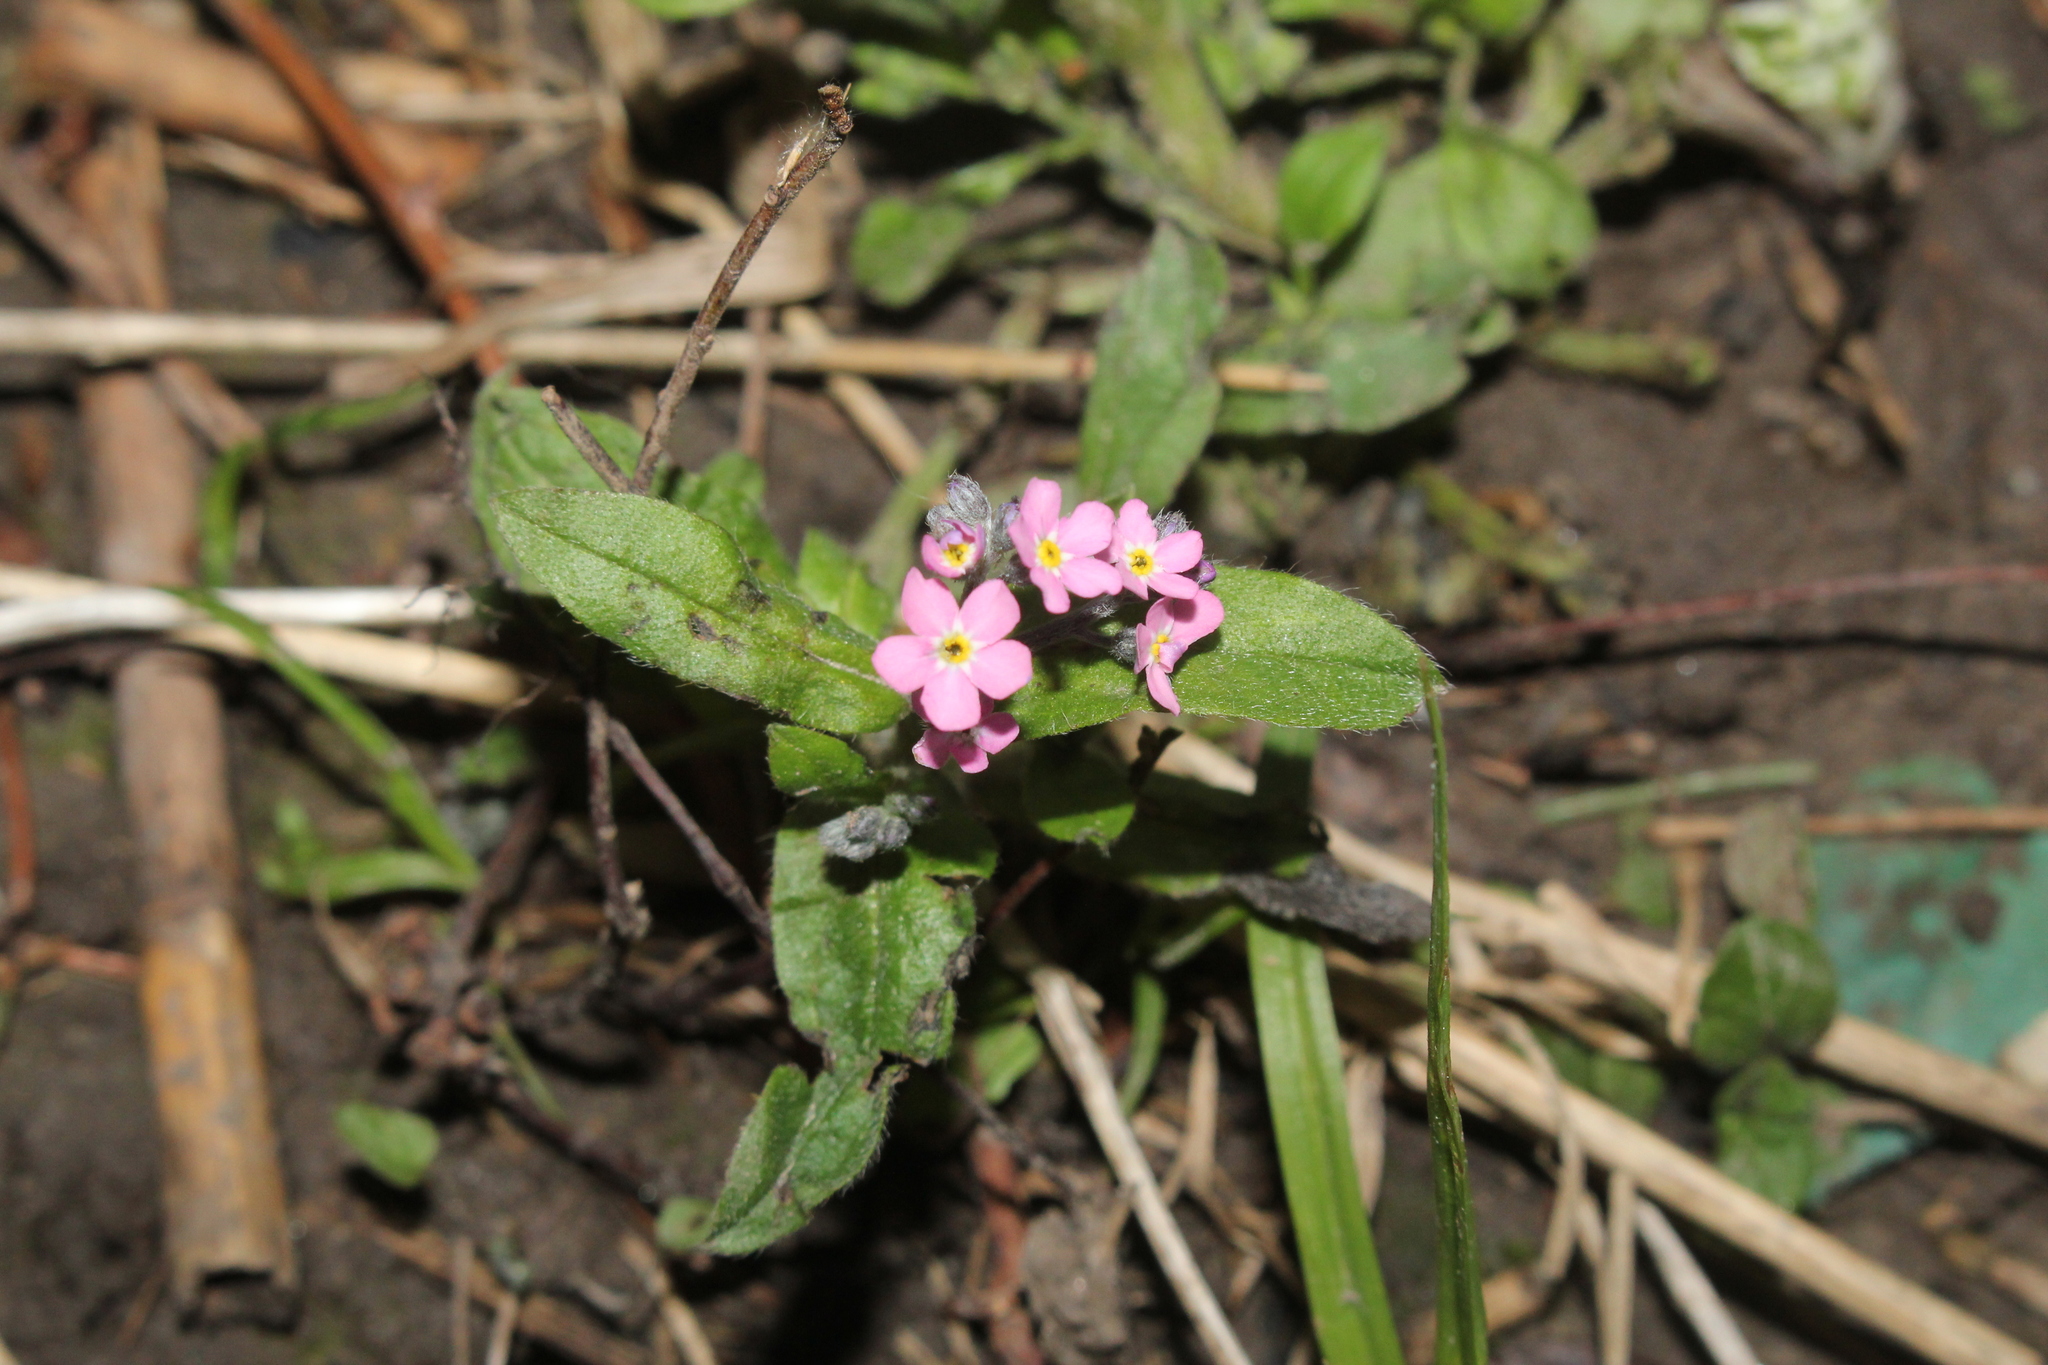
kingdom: Plantae
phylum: Tracheophyta
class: Magnoliopsida
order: Boraginales
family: Boraginaceae
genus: Myosotis
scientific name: Myosotis sylvatica
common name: Wood forget-me-not
